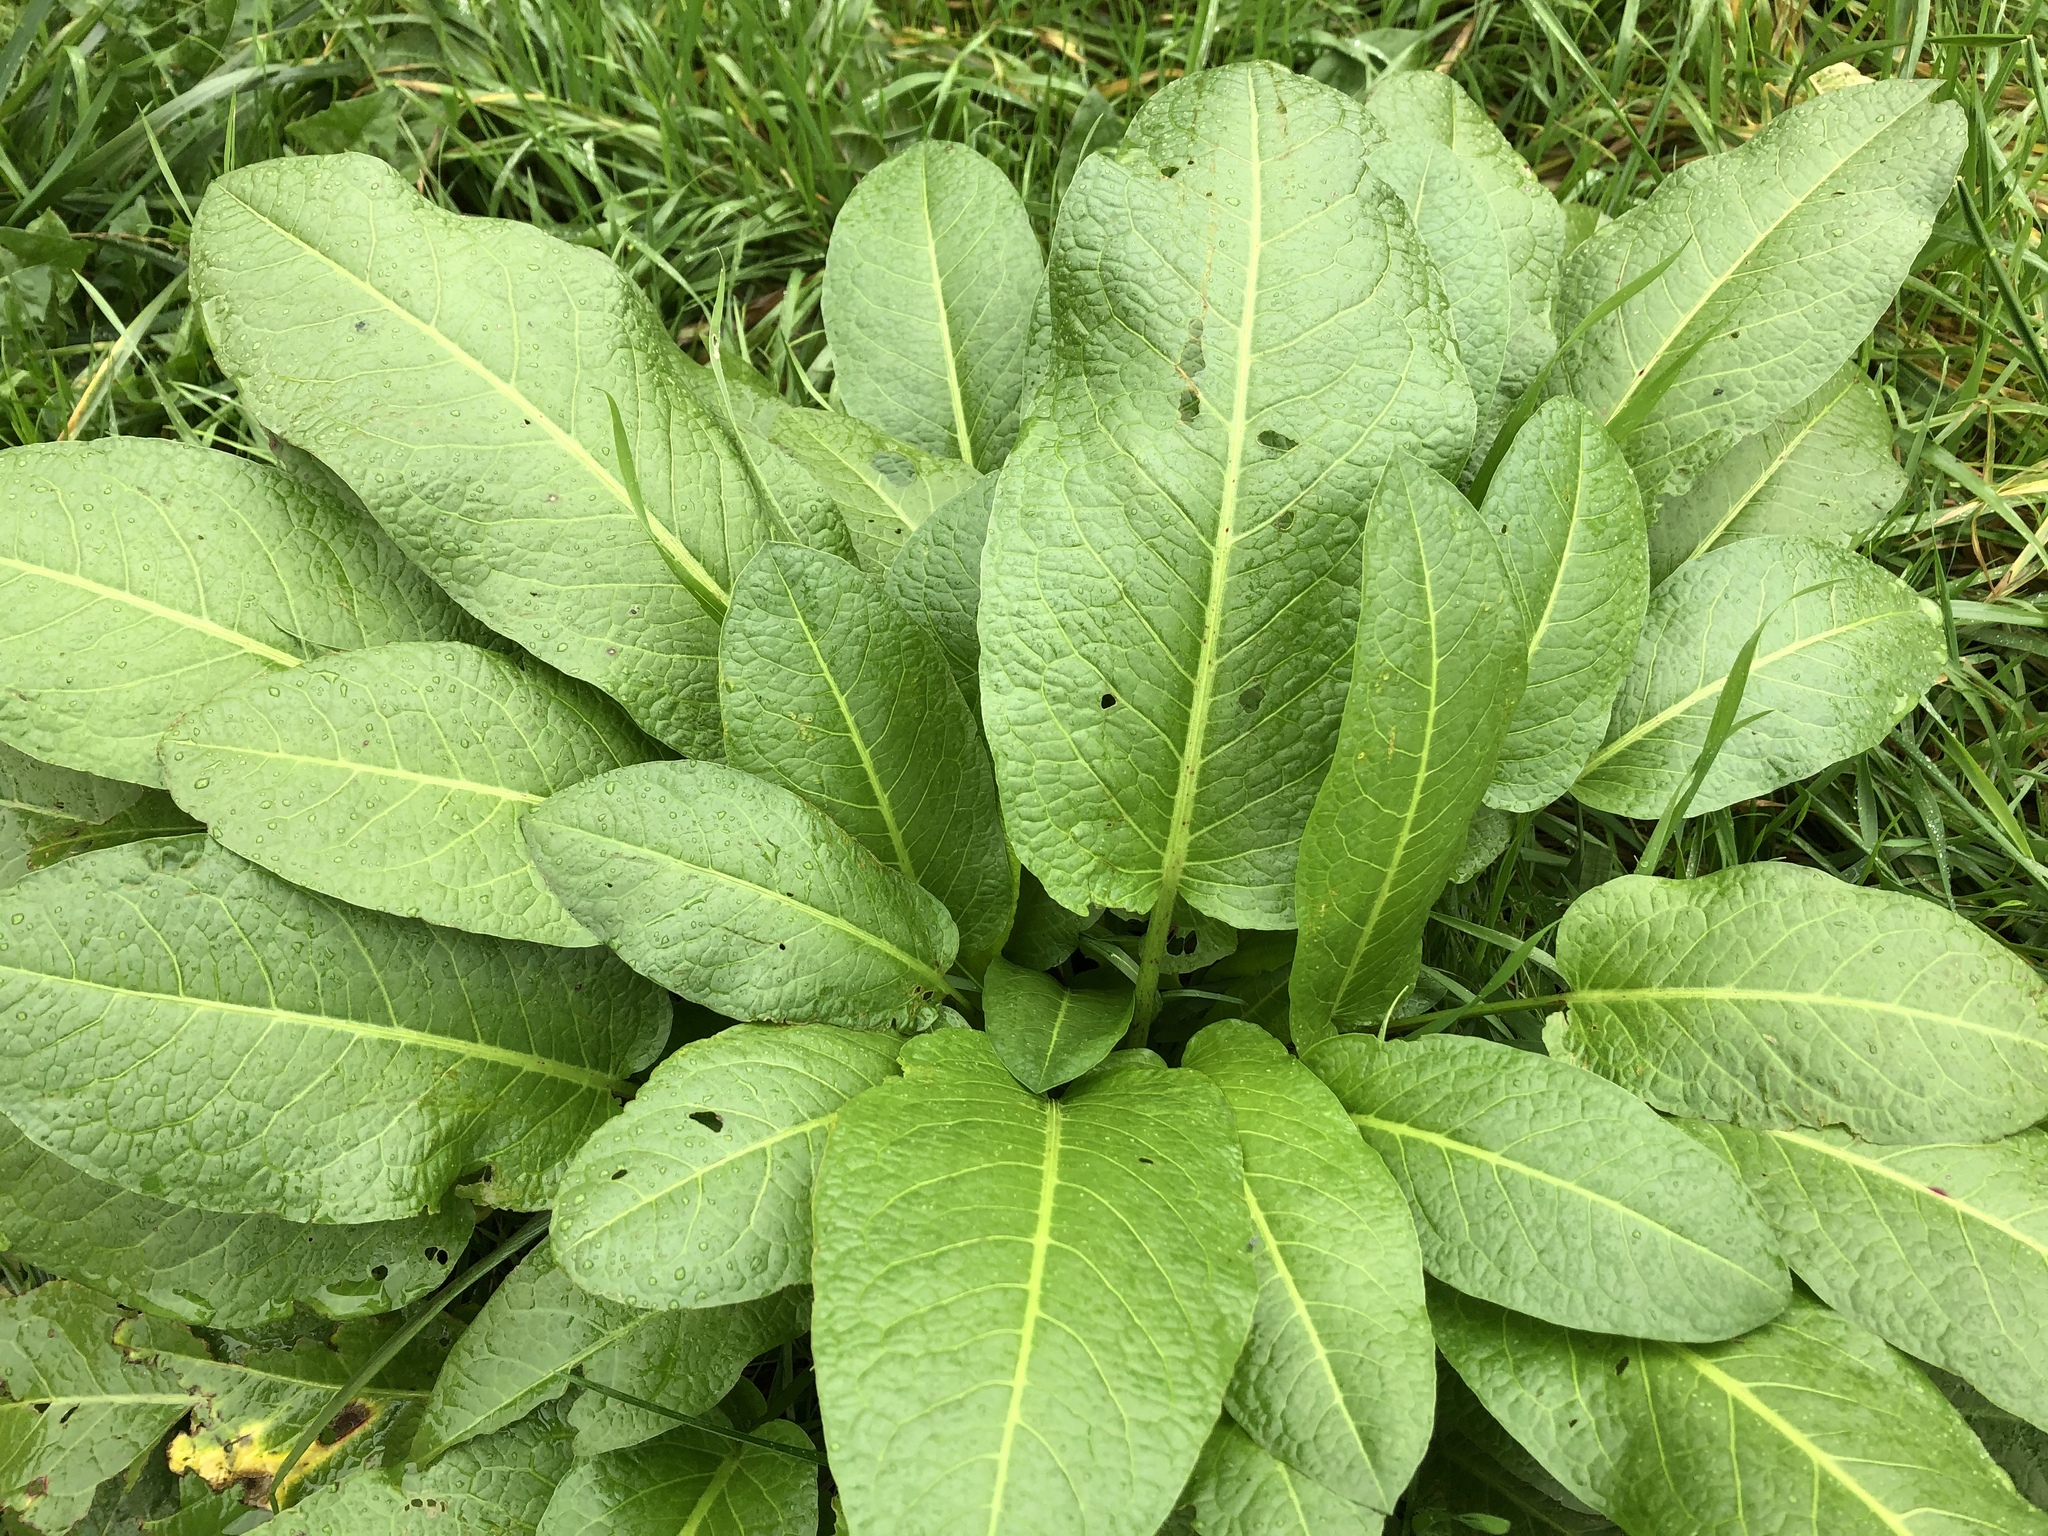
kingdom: Plantae
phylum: Tracheophyta
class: Magnoliopsida
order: Caryophyllales
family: Polygonaceae
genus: Rumex
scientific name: Rumex obtusifolius
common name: Bitter dock
